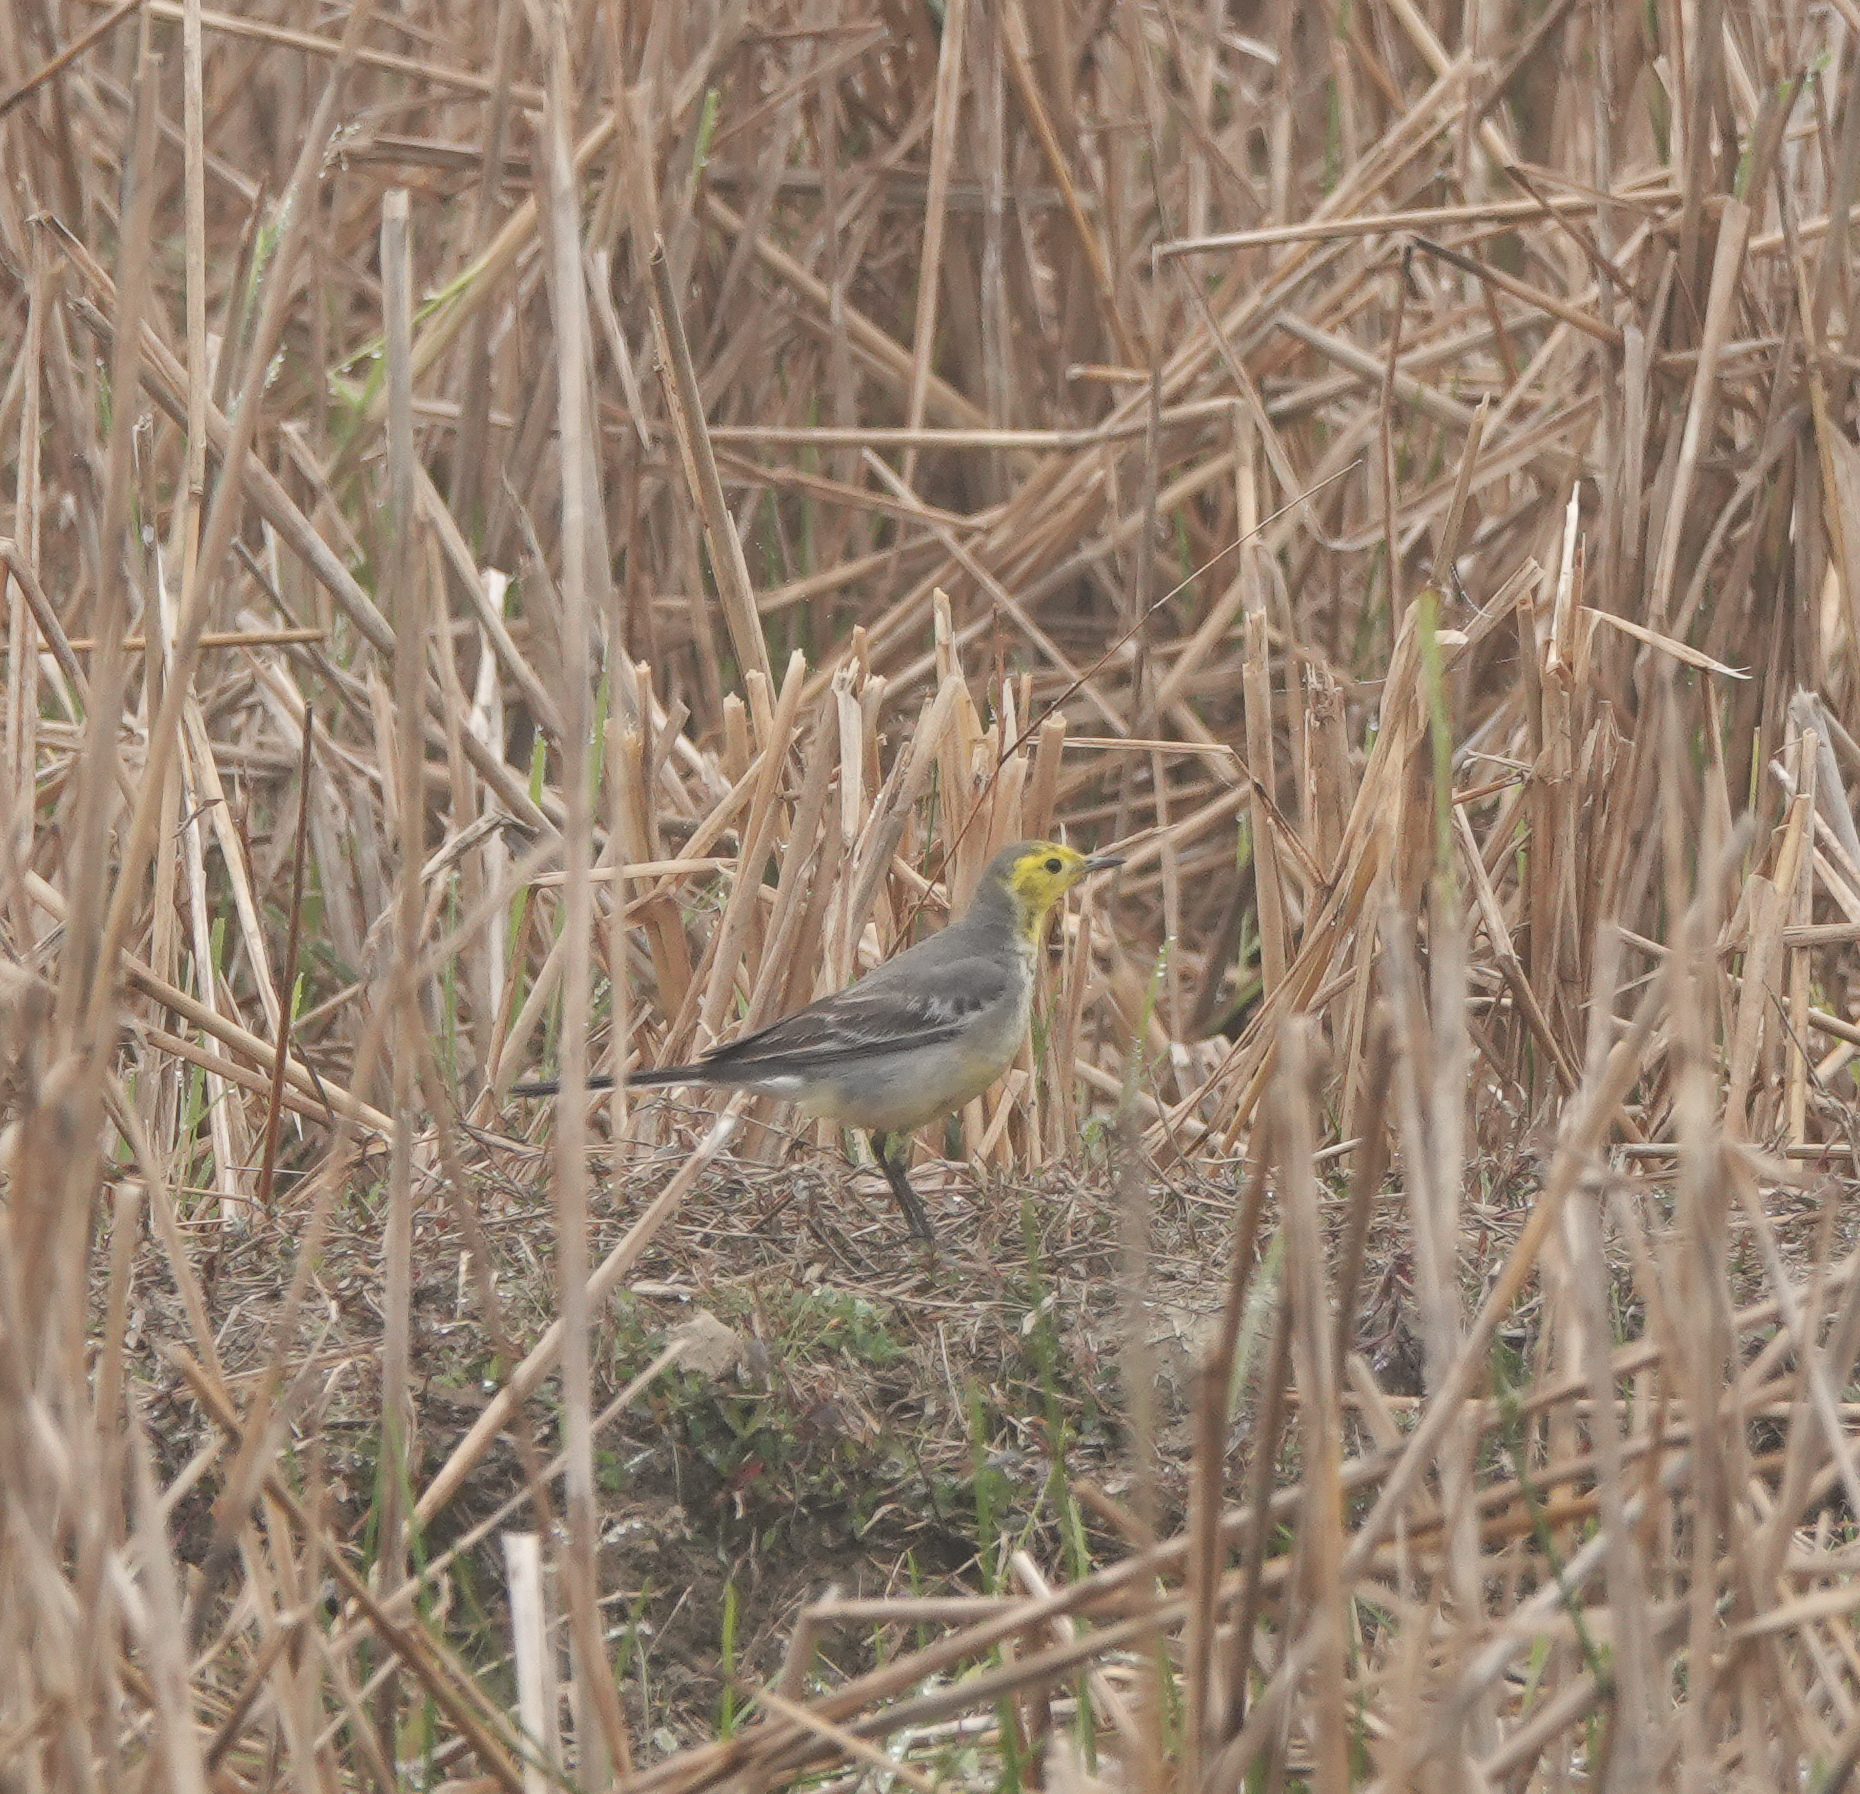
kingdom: Animalia
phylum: Chordata
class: Aves
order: Passeriformes
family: Motacillidae
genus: Motacilla
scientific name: Motacilla citreola
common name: Citrine wagtail
